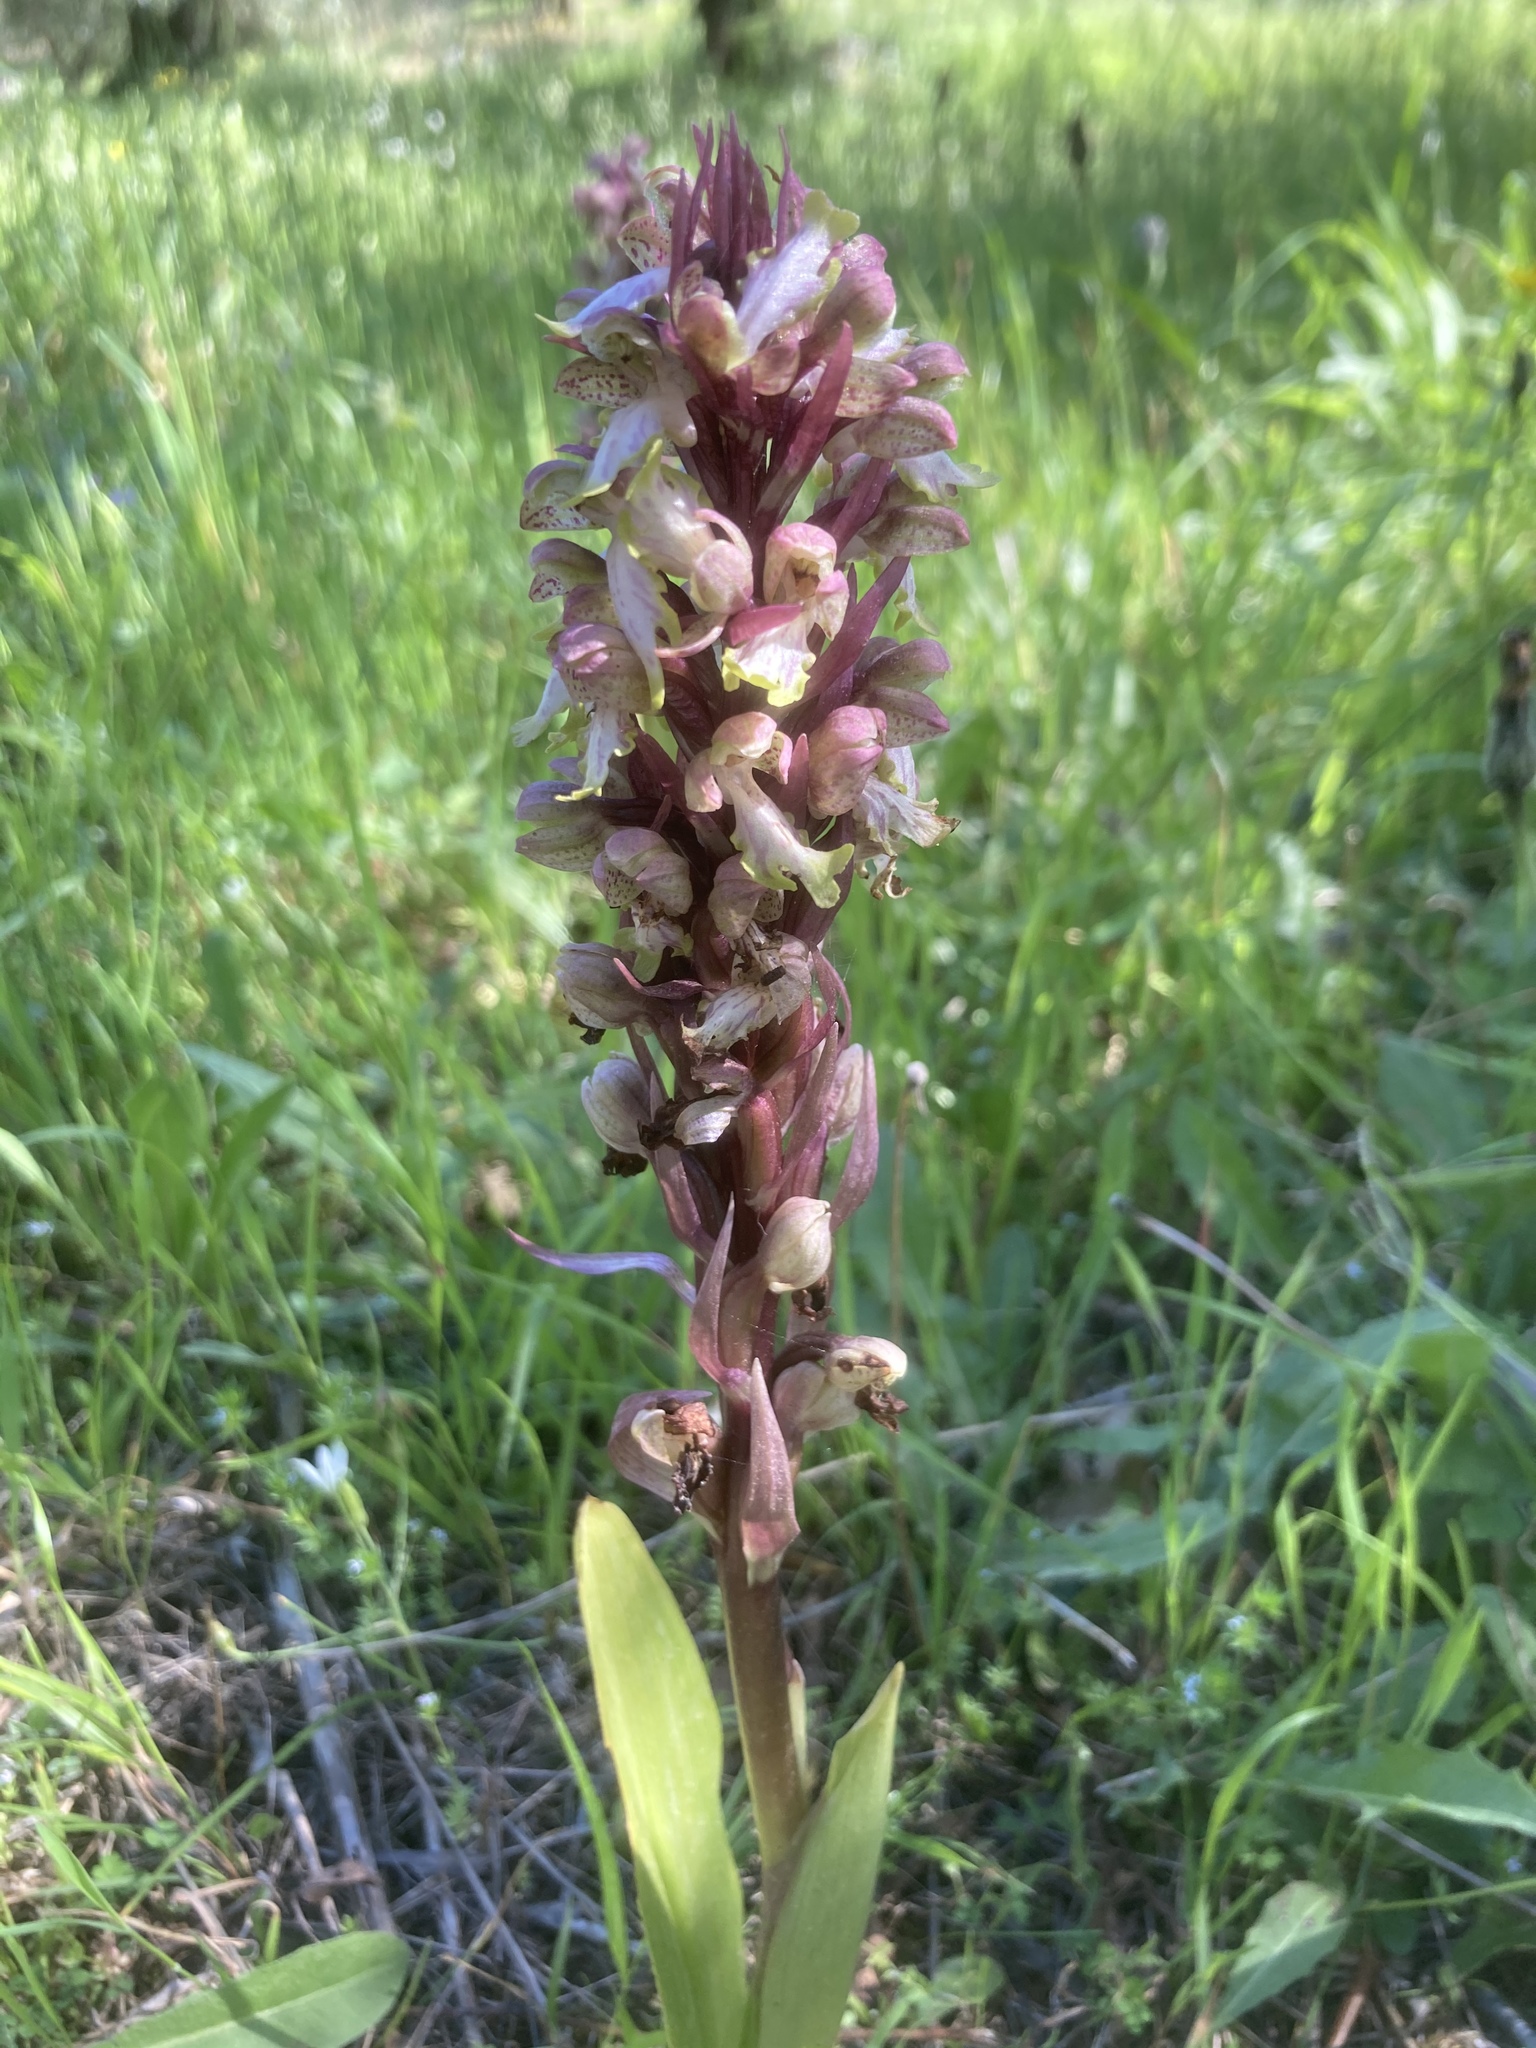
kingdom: Plantae
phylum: Tracheophyta
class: Liliopsida
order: Asparagales
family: Orchidaceae
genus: Himantoglossum
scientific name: Himantoglossum robertianum
